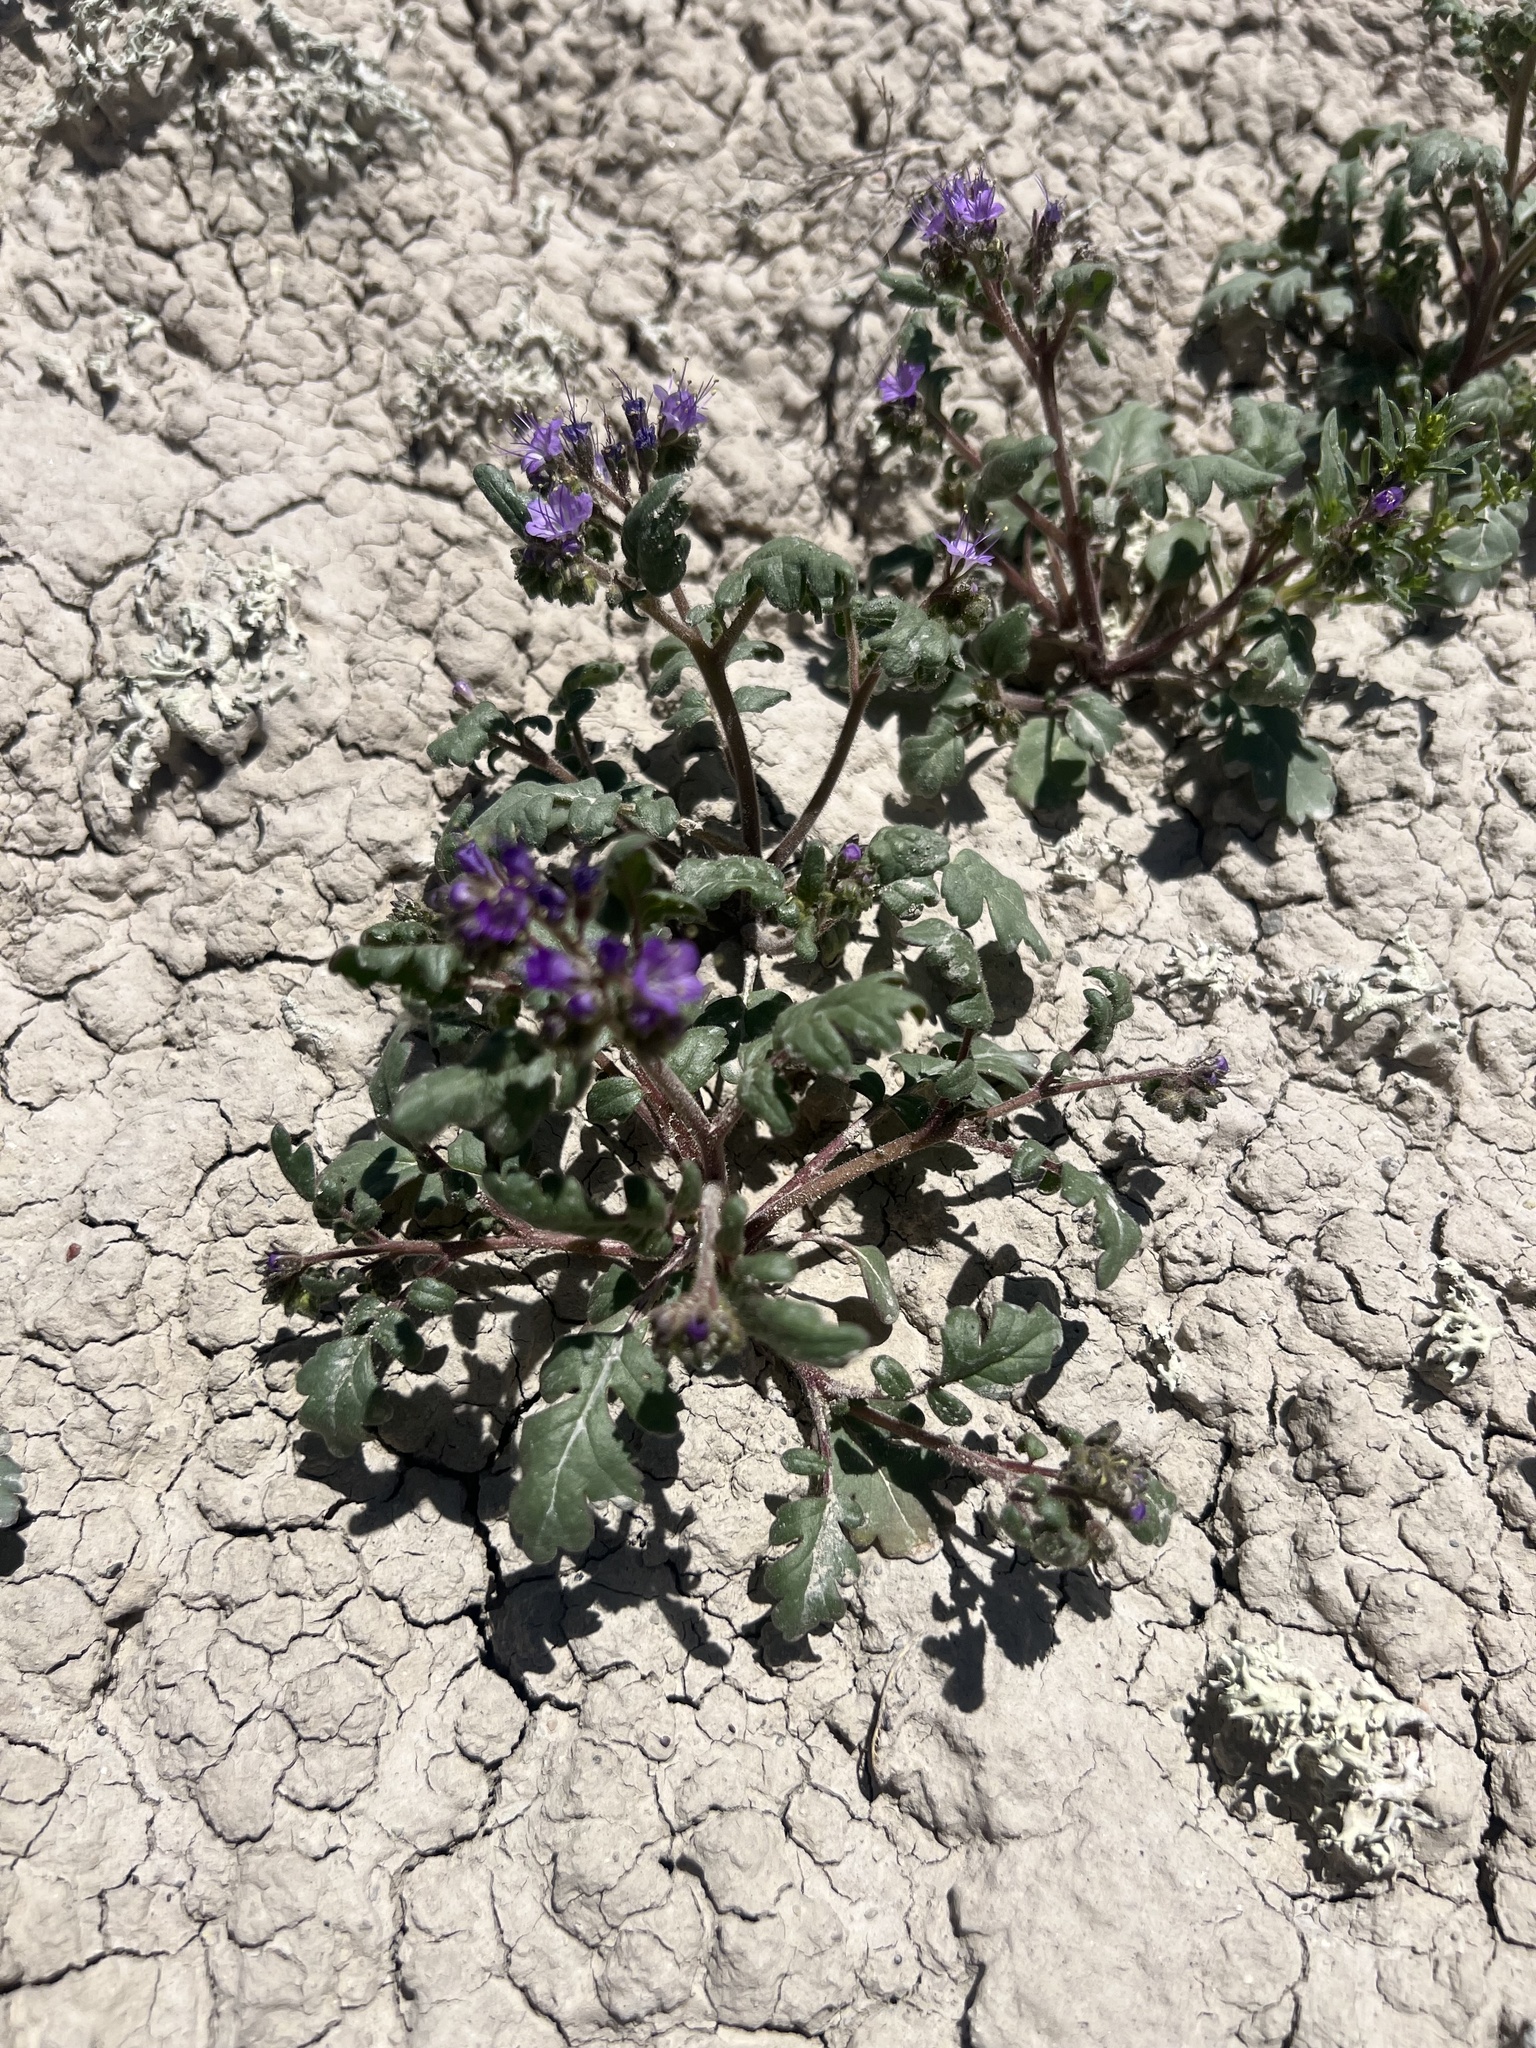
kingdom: Plantae
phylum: Tracheophyta
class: Magnoliopsida
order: Boraginales
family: Hydrophyllaceae
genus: Phacelia
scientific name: Phacelia gina-glenneae
